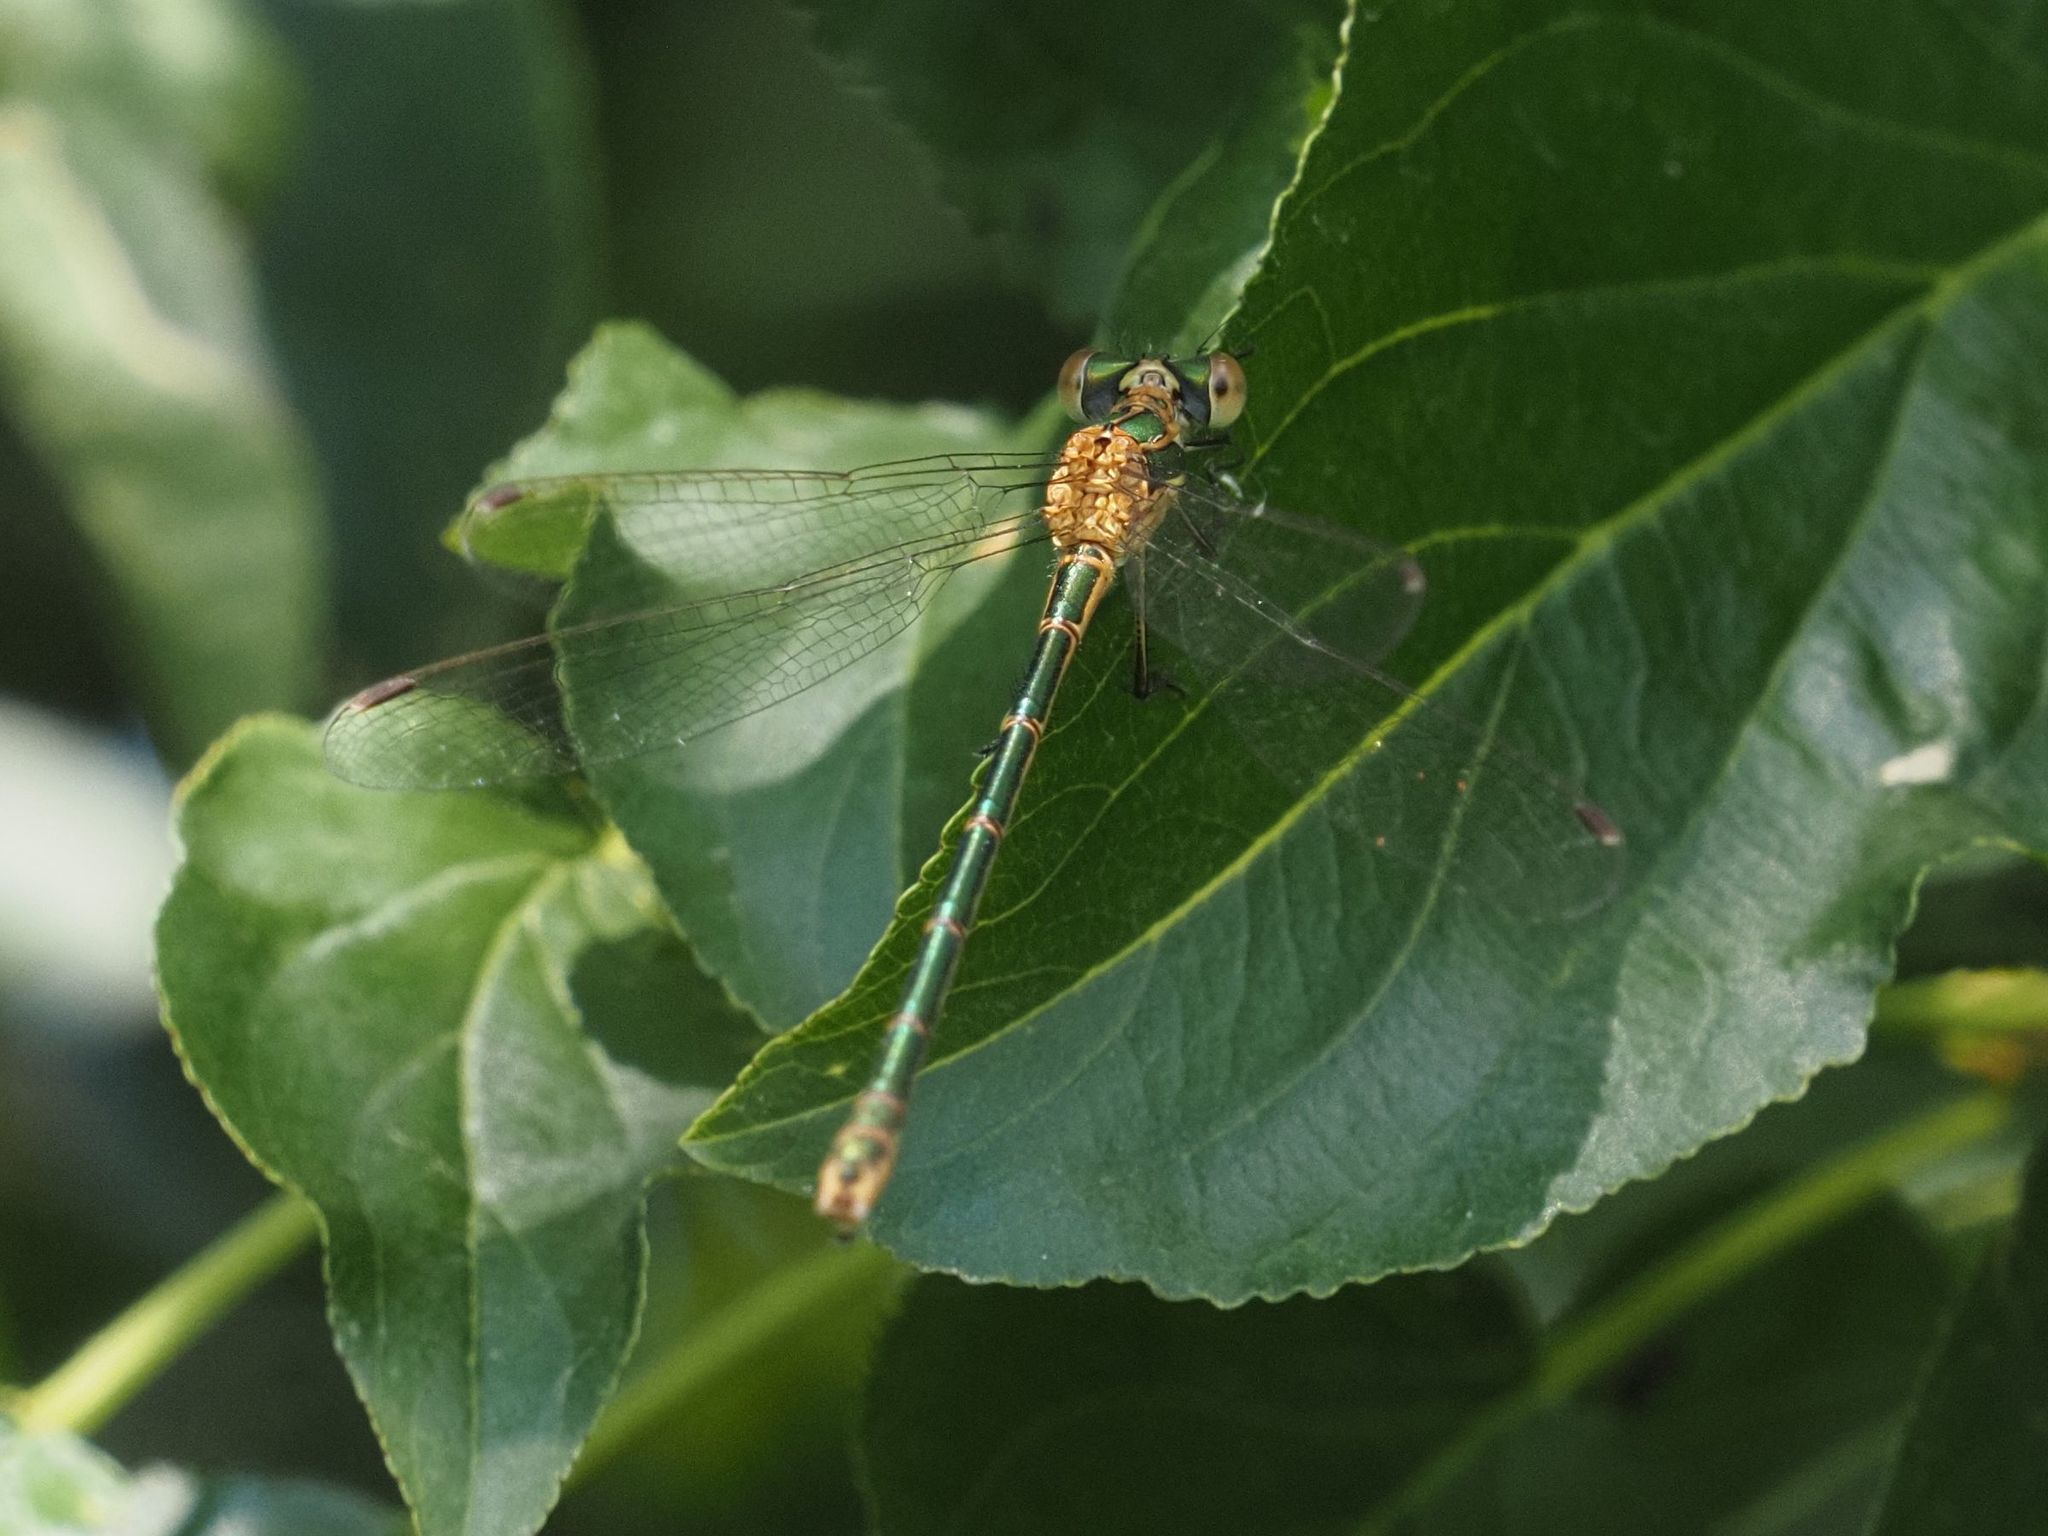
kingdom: Animalia
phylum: Arthropoda
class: Insecta
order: Odonata
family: Lestidae
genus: Lestes
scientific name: Lestes sponsa
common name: Common spreadwing
